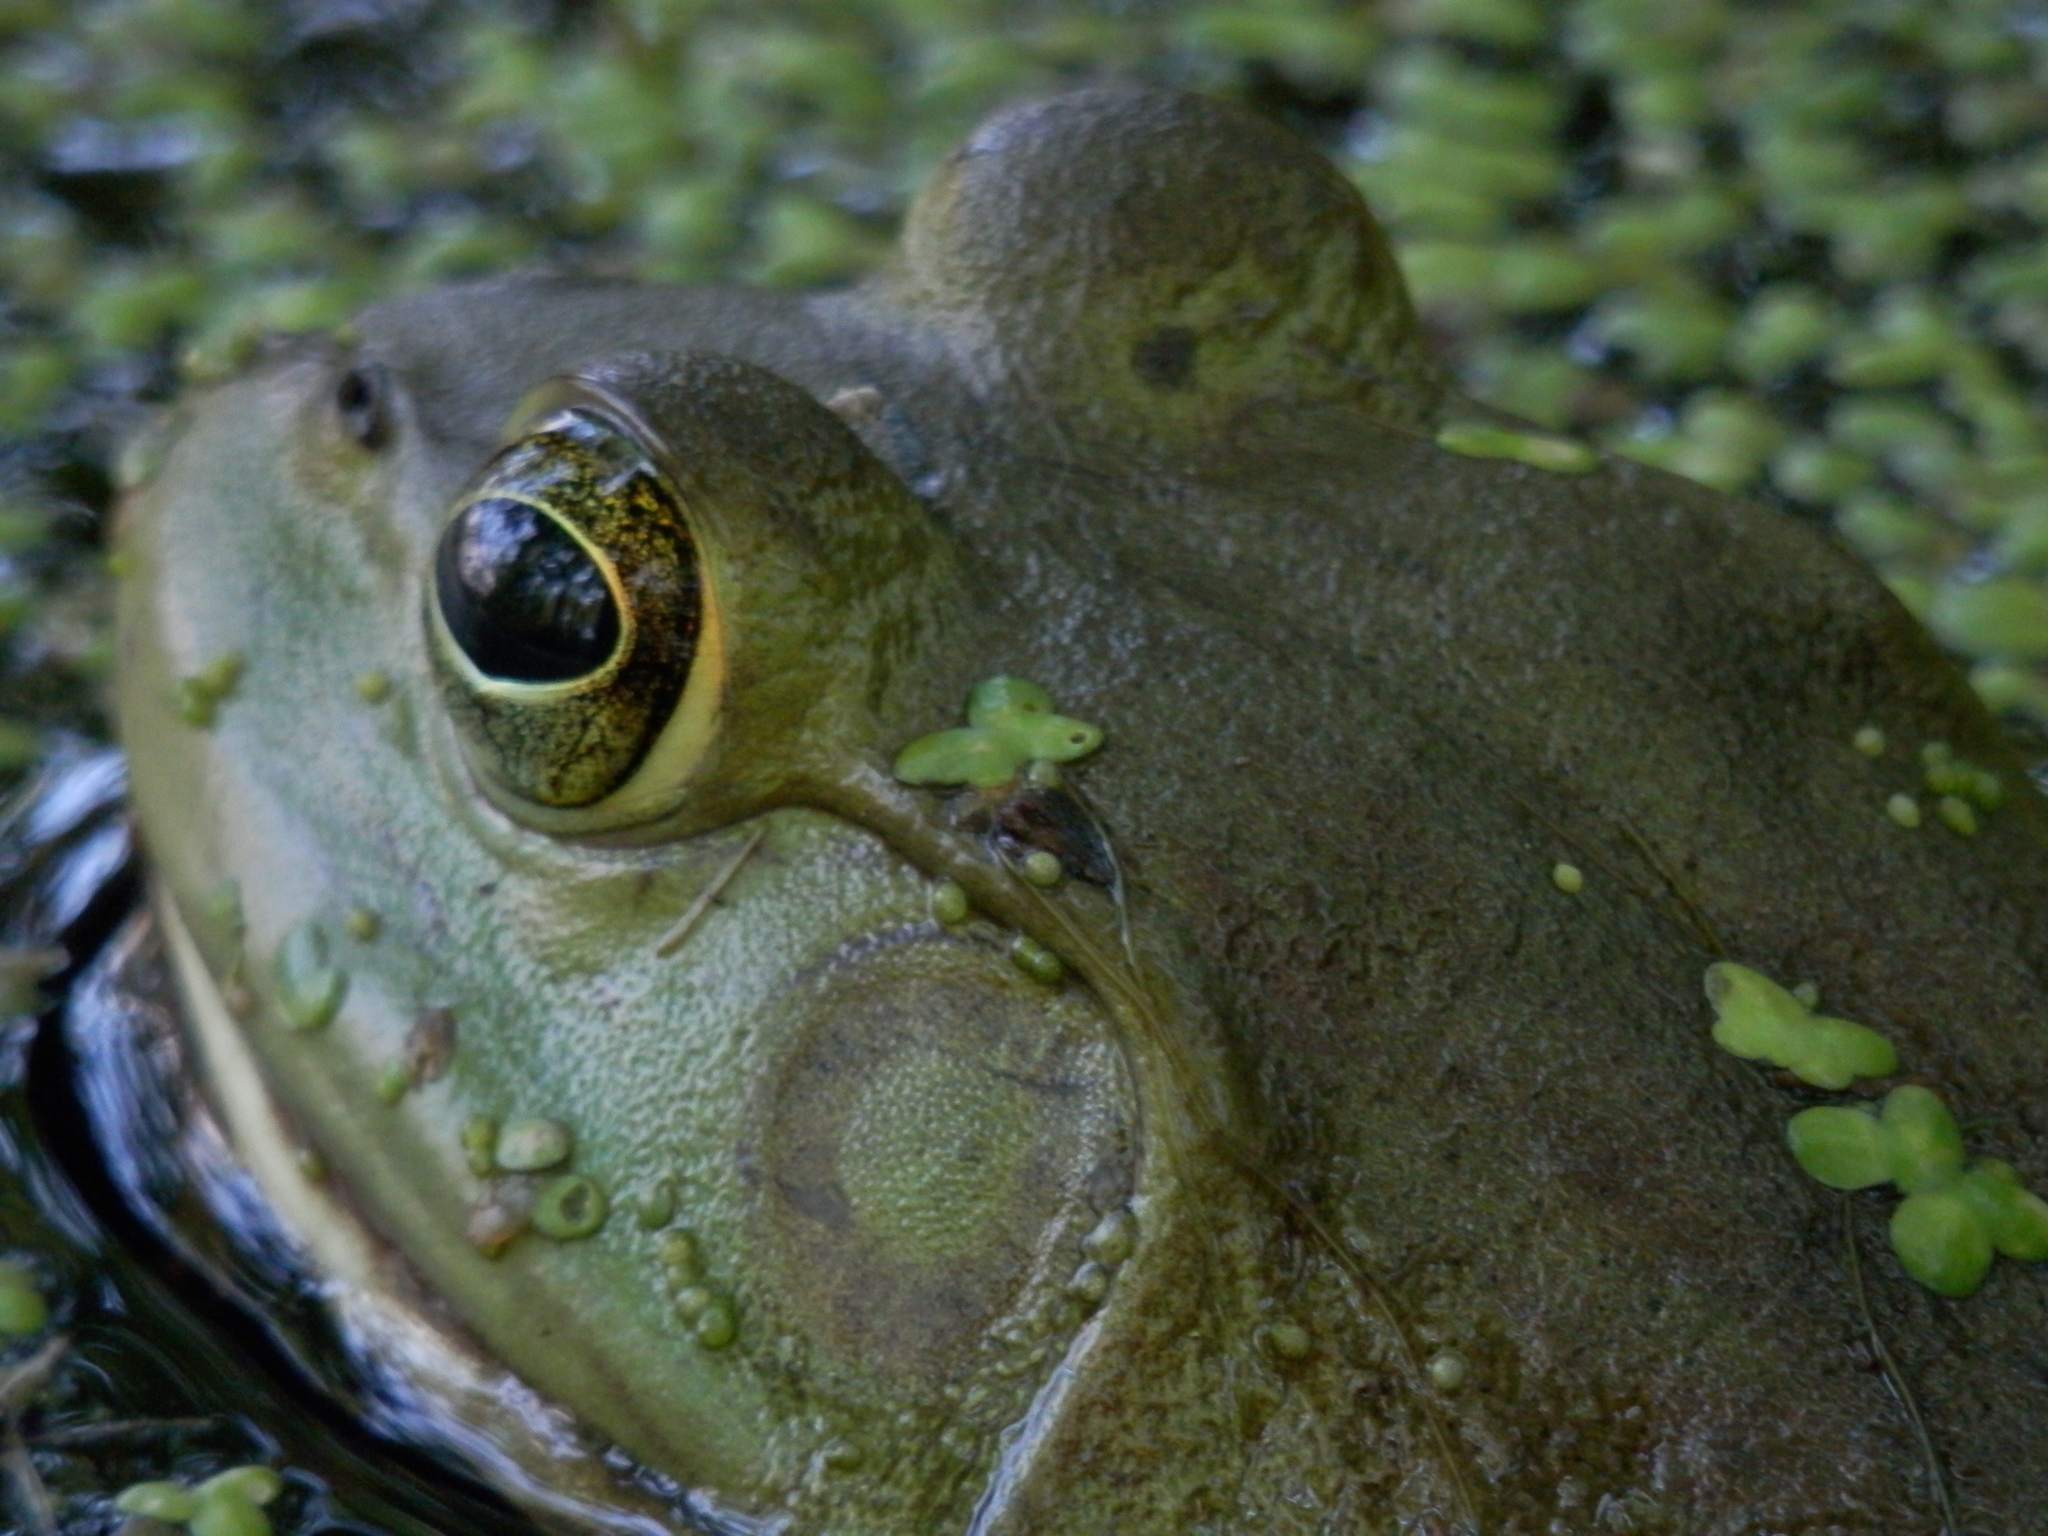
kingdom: Animalia
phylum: Chordata
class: Amphibia
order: Anura
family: Ranidae
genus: Lithobates
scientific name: Lithobates catesbeianus
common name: American bullfrog
